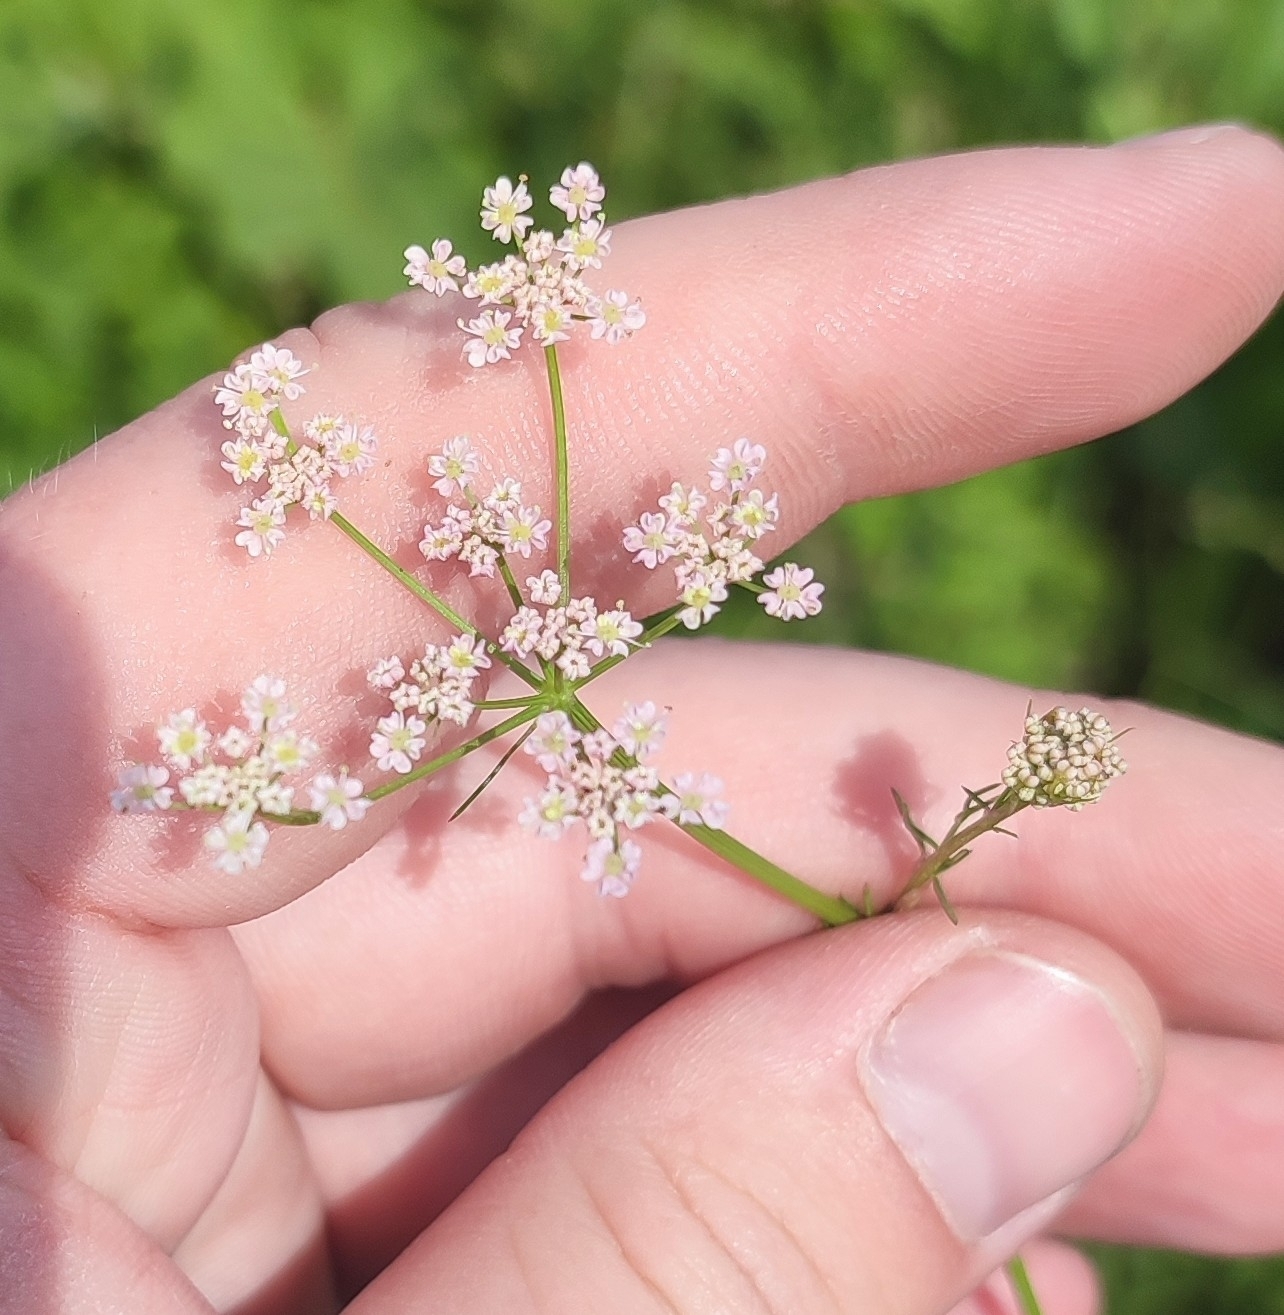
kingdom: Plantae
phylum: Tracheophyta
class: Magnoliopsida
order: Apiales
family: Apiaceae
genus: Carum
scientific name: Carum carvi
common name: Caraway
